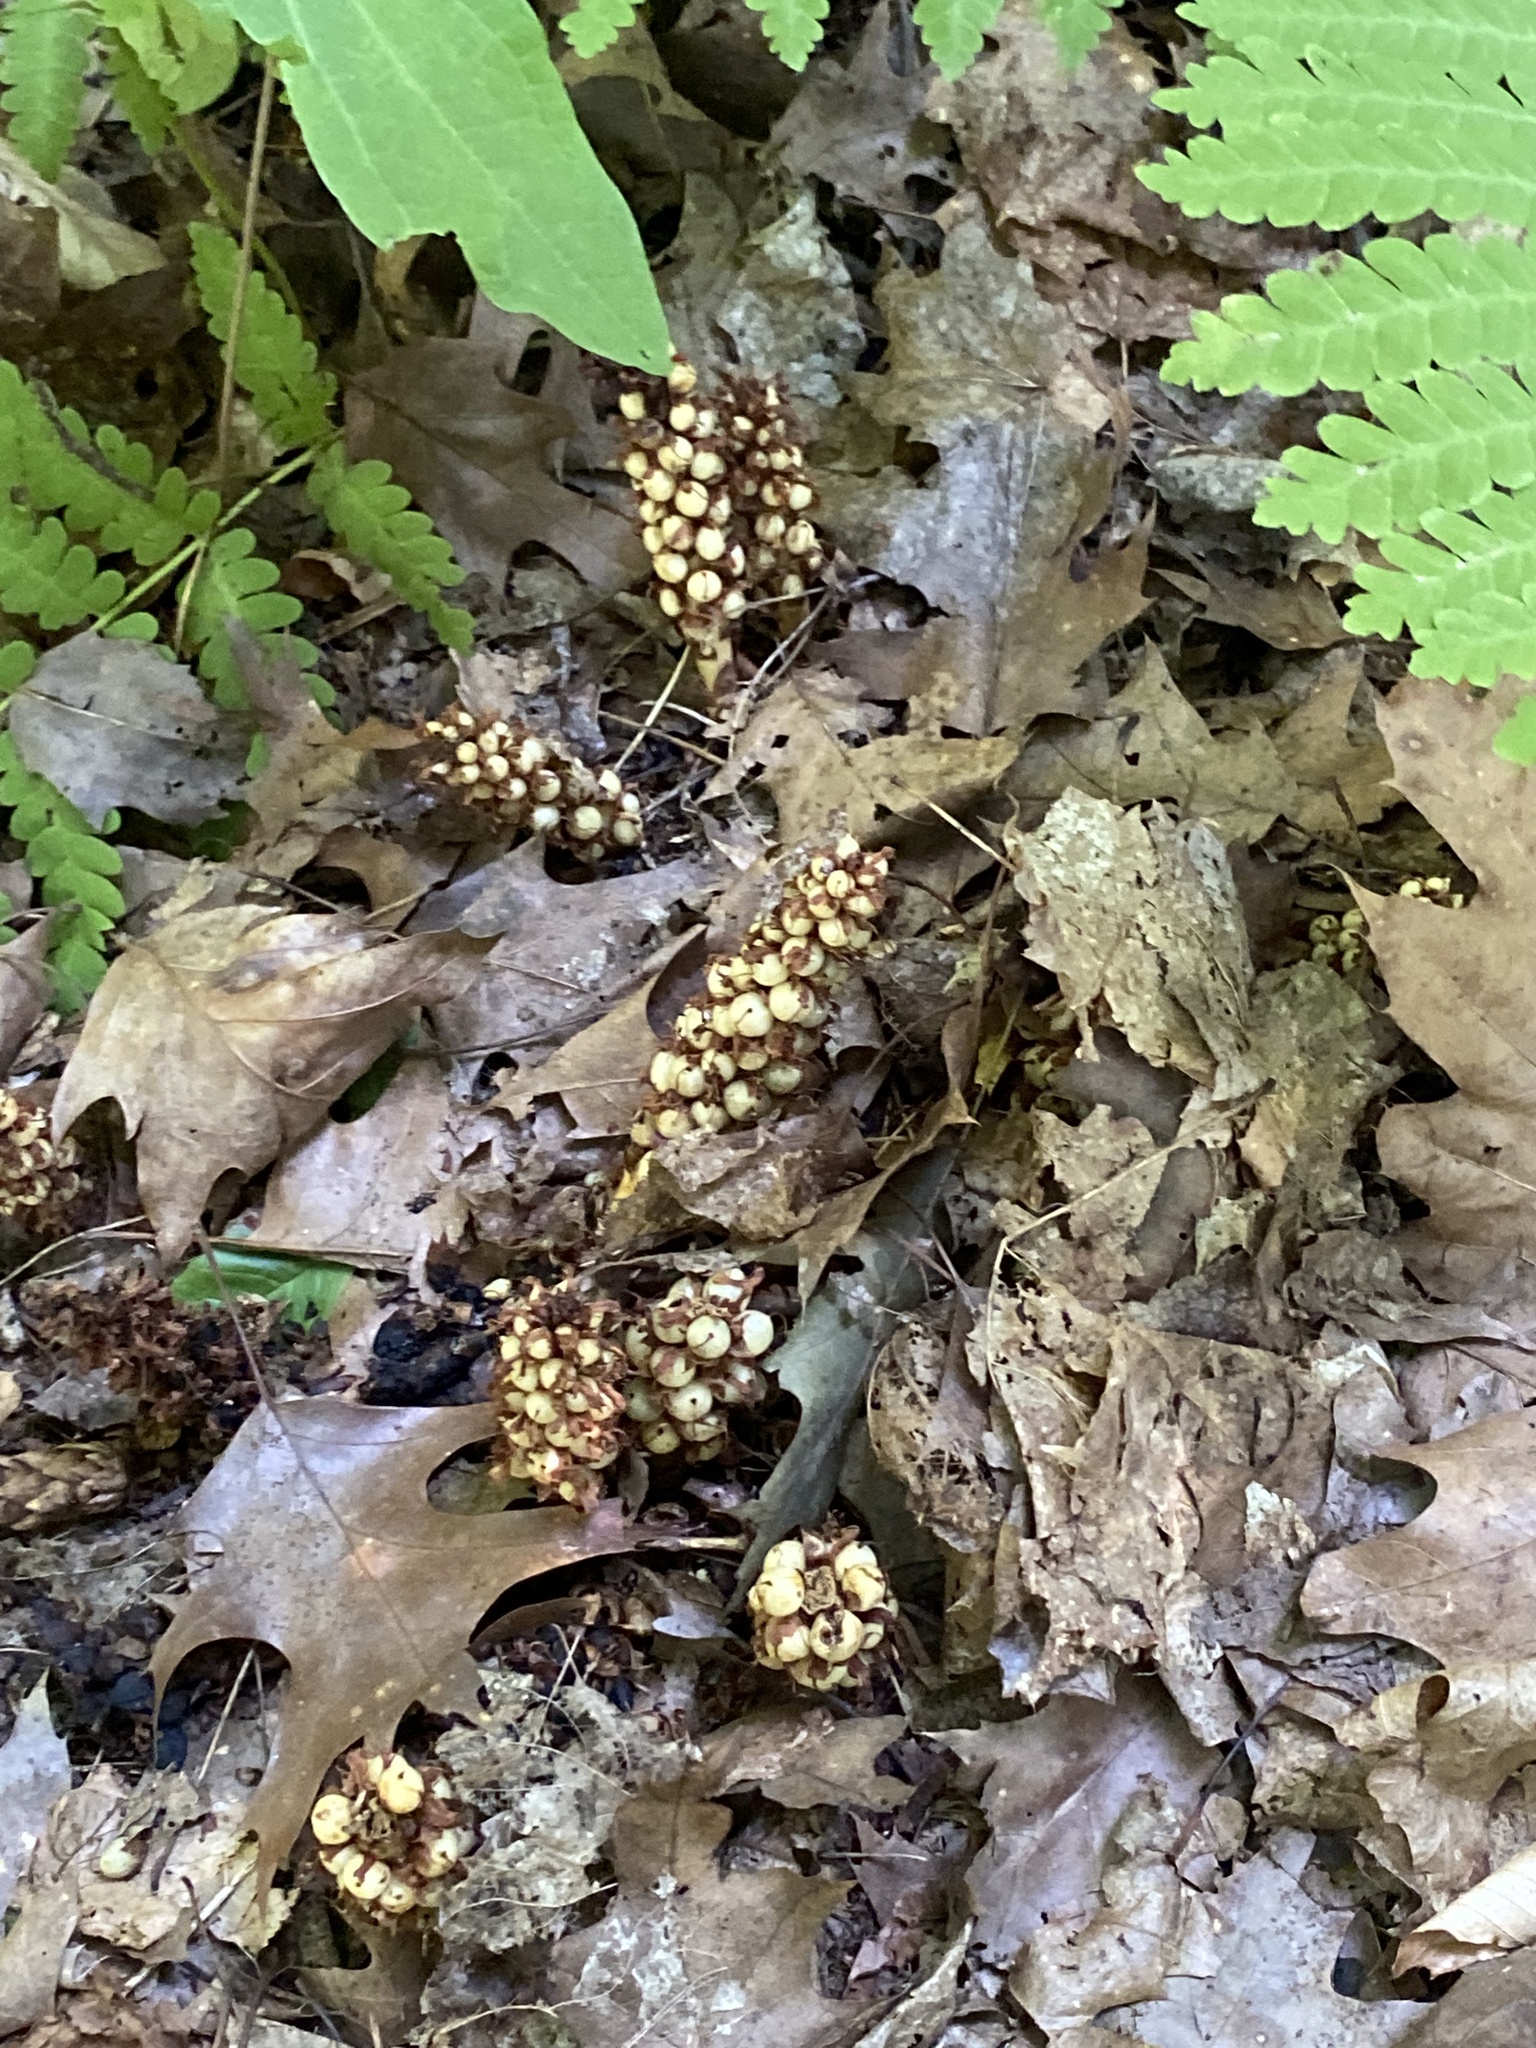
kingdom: Plantae
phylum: Tracheophyta
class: Magnoliopsida
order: Lamiales
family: Orobanchaceae
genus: Conopholis
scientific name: Conopholis americana
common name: American cancer-root
